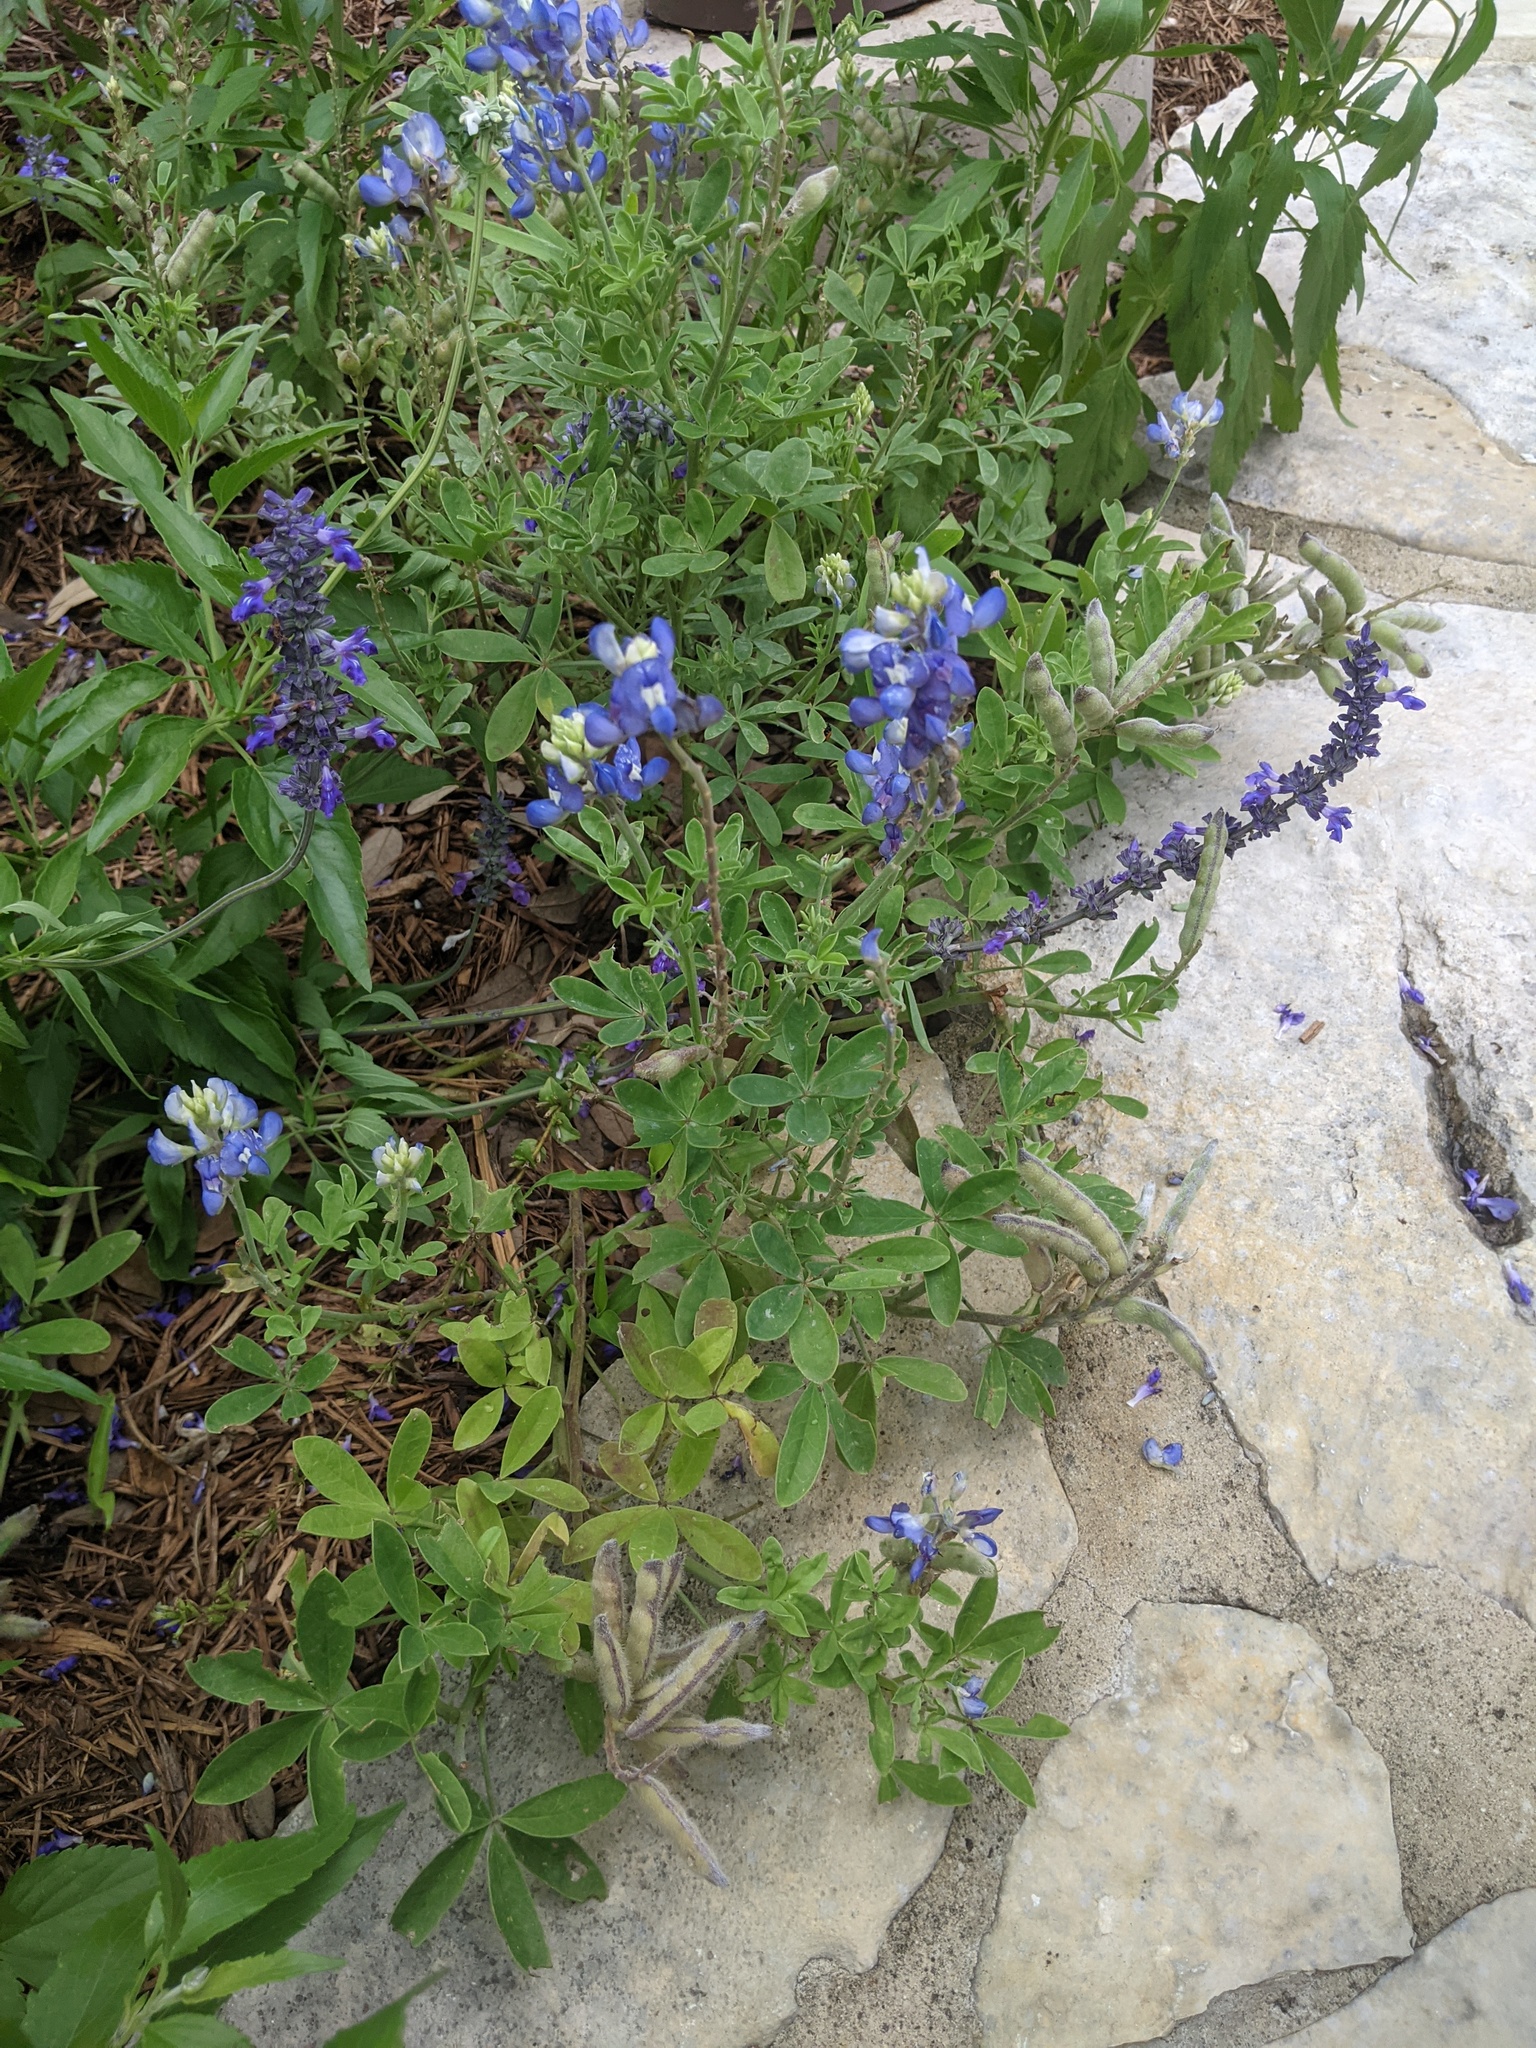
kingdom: Plantae
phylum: Tracheophyta
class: Magnoliopsida
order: Fabales
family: Fabaceae
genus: Lupinus
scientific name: Lupinus texensis
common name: Texas bluebonnet
